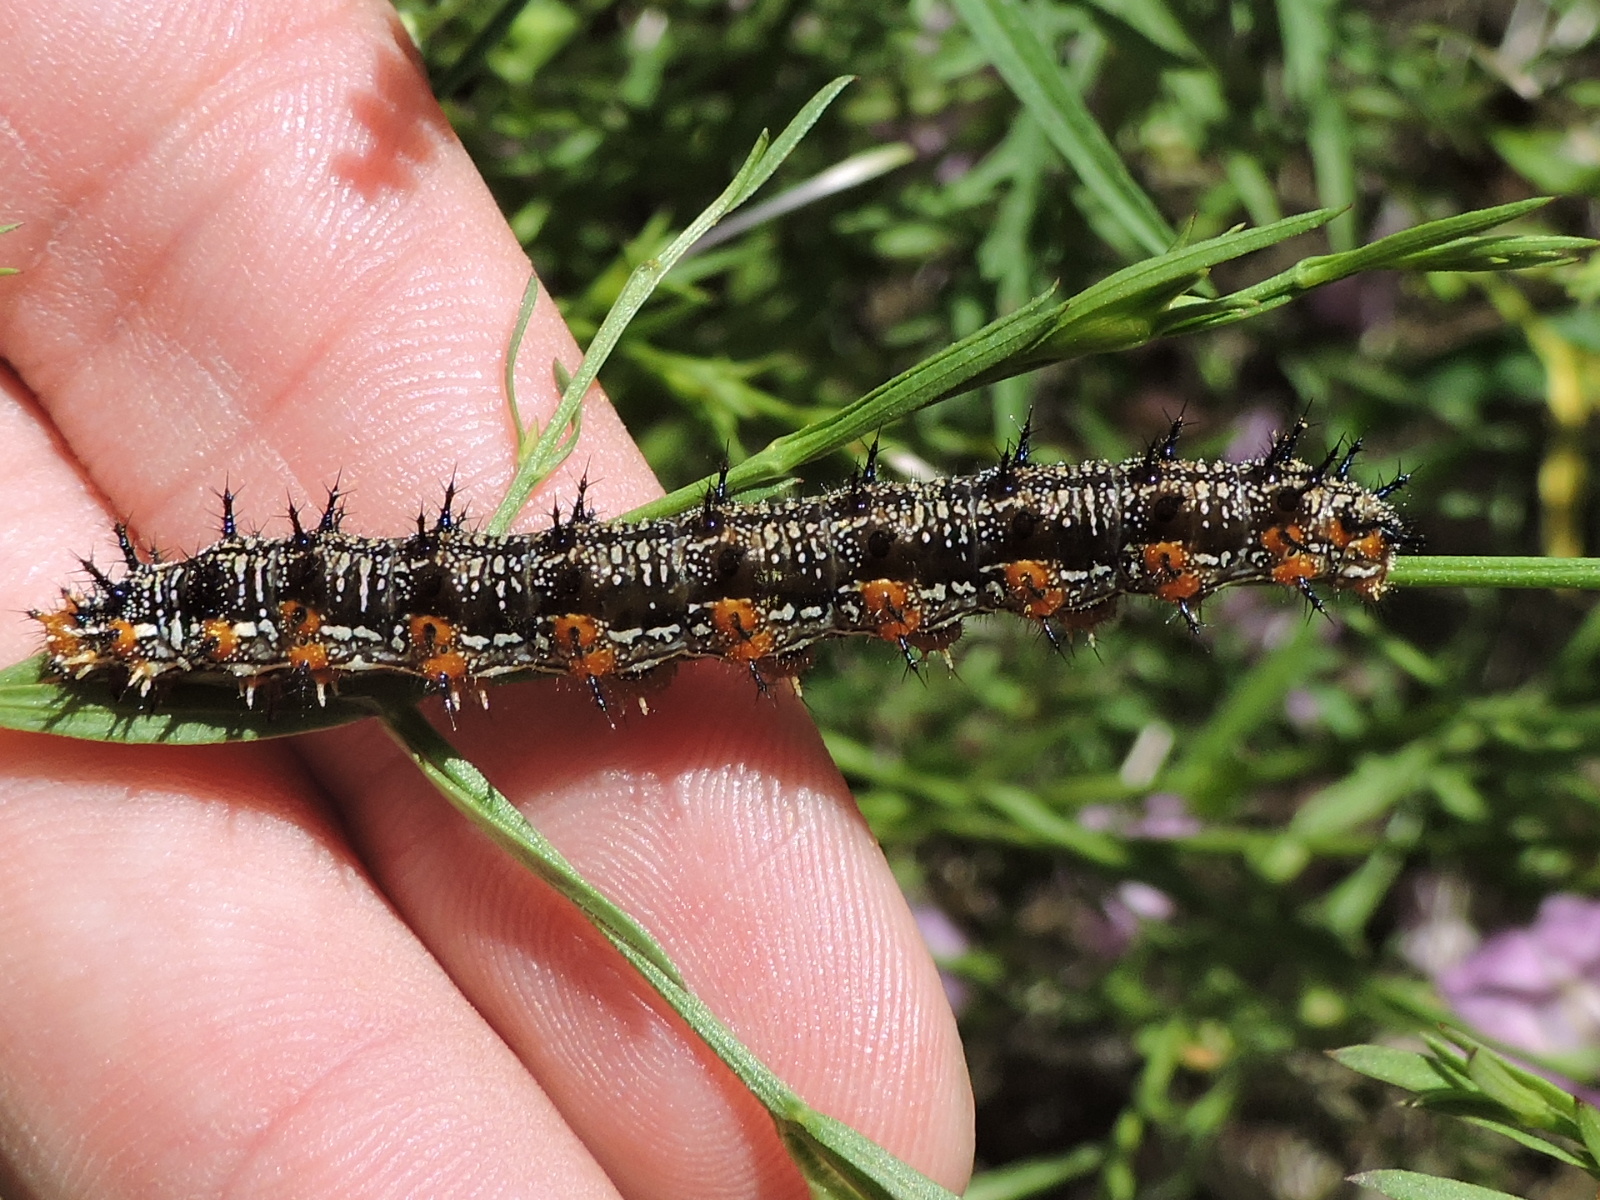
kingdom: Animalia
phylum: Arthropoda
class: Insecta
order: Lepidoptera
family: Nymphalidae
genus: Junonia
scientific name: Junonia coenia
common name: Common buckeye
